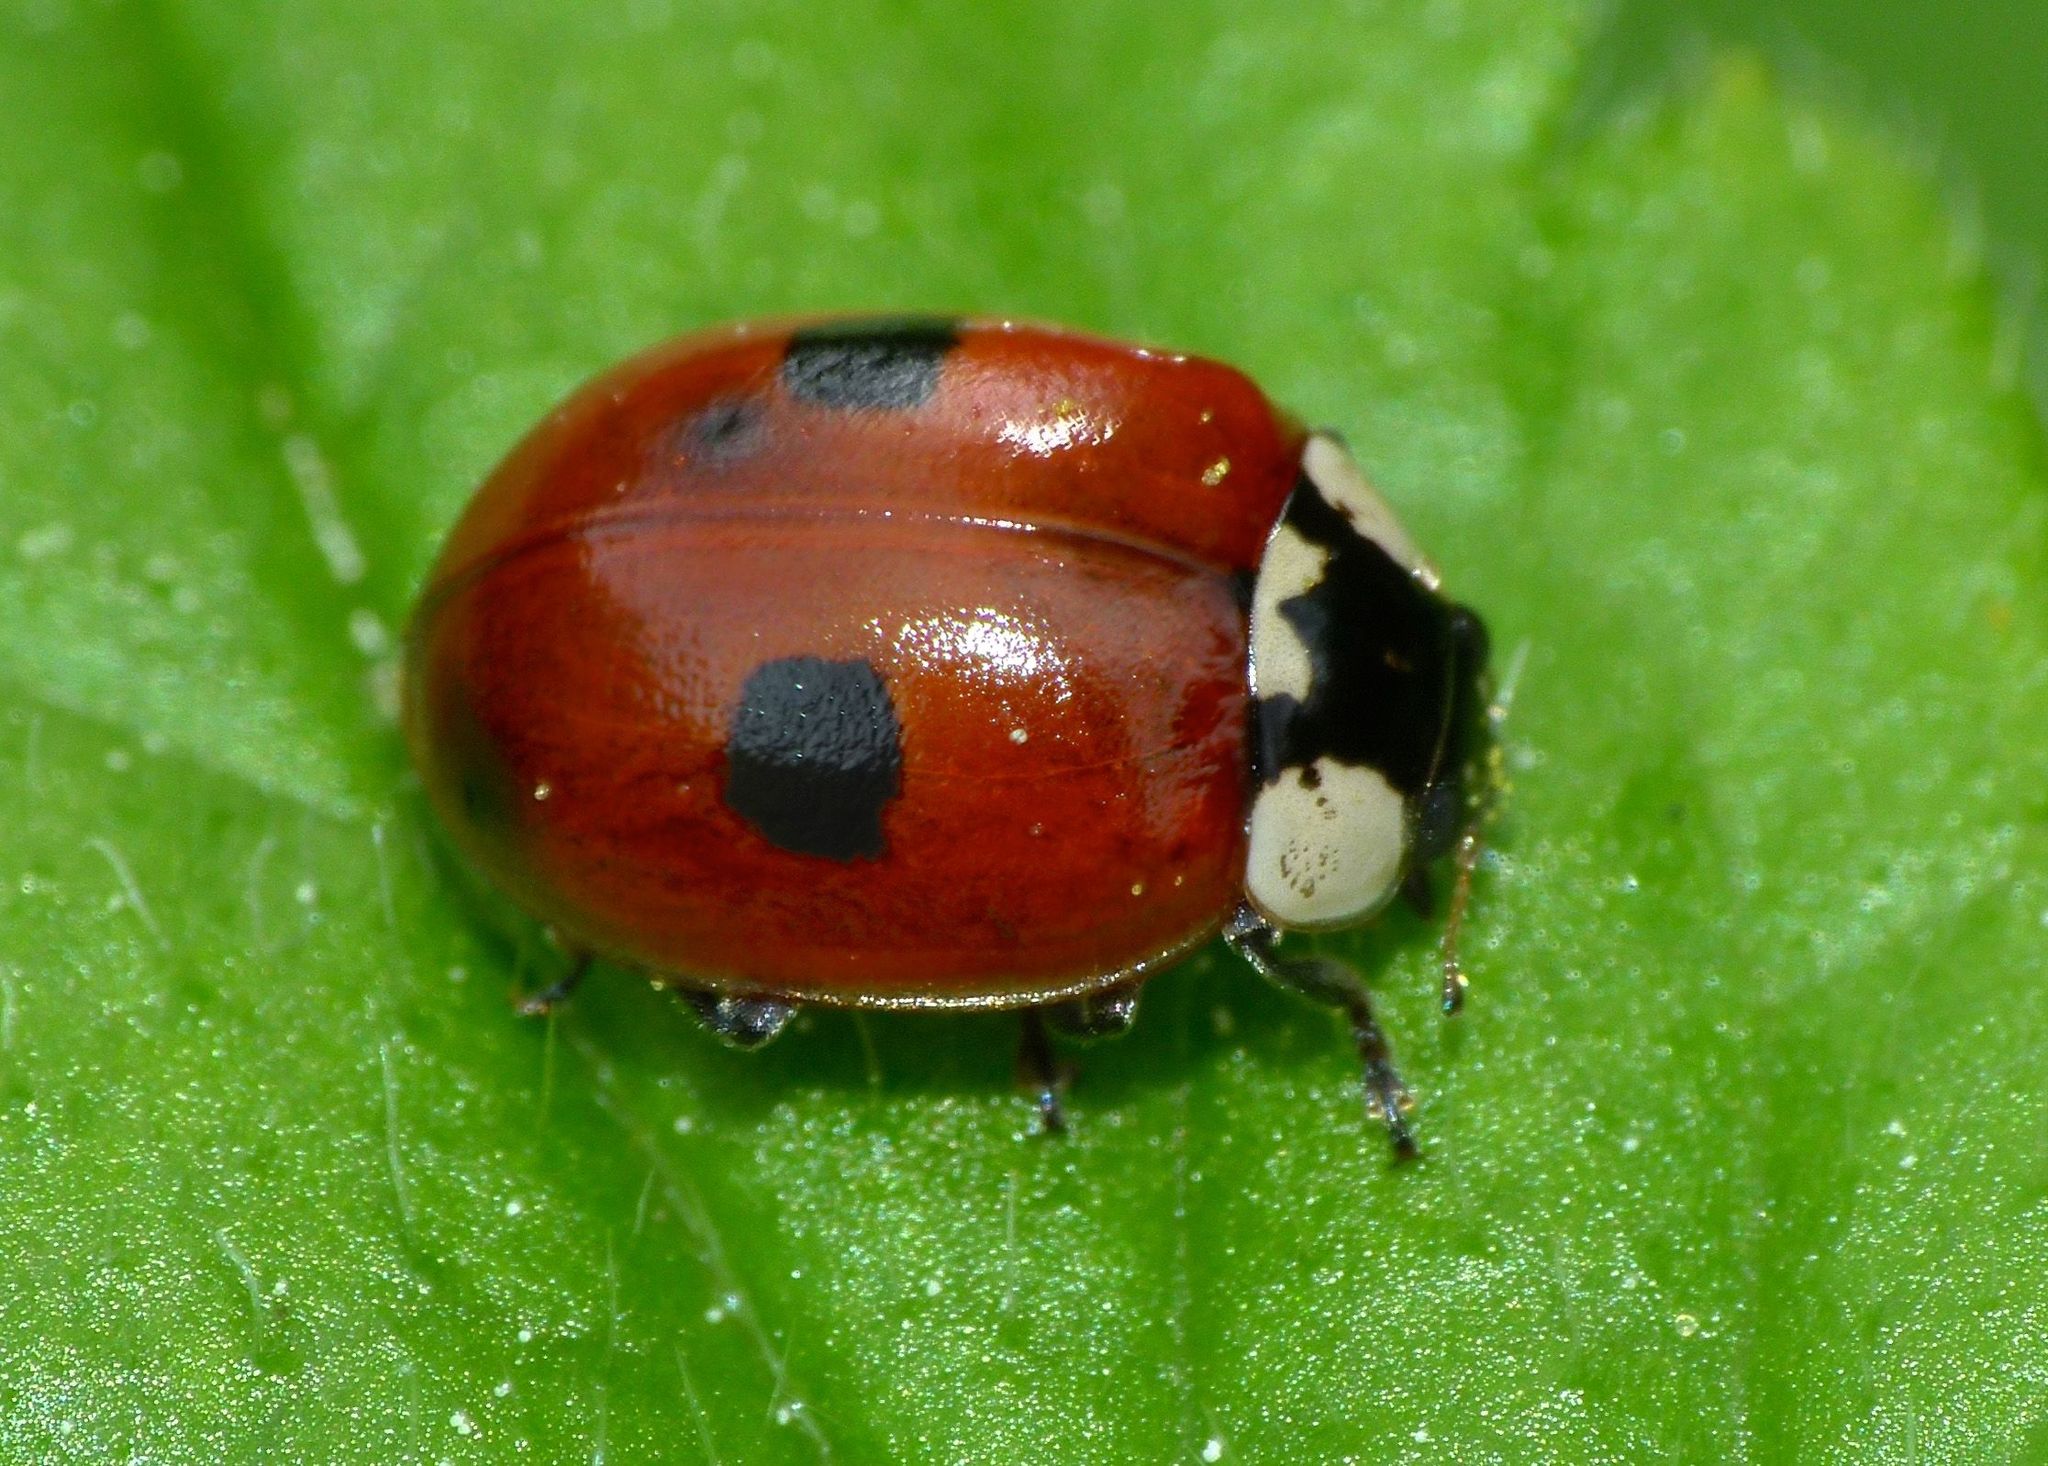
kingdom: Animalia
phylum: Arthropoda
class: Insecta
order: Coleoptera
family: Coccinellidae
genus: Adalia
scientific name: Adalia bipunctata
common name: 2-spot ladybird
